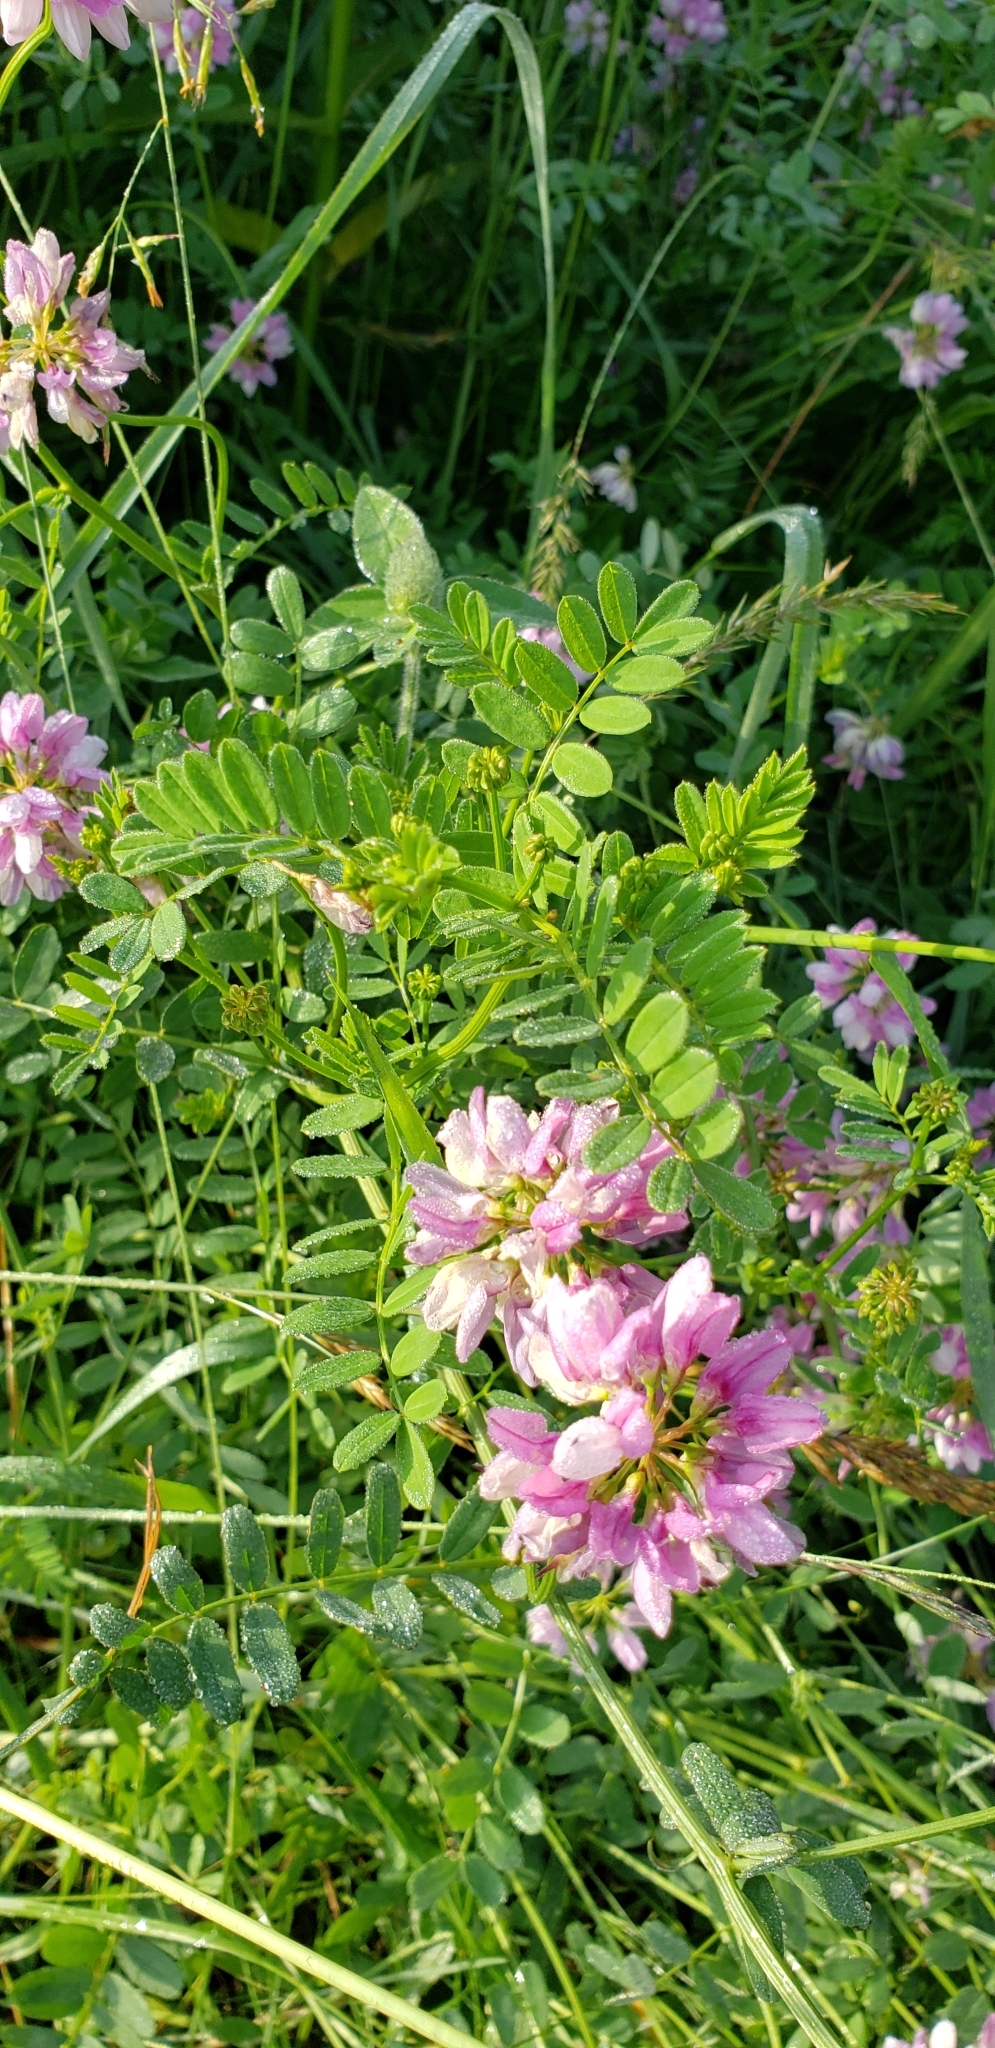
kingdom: Plantae
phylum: Tracheophyta
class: Magnoliopsida
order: Fabales
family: Fabaceae
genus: Coronilla
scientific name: Coronilla varia
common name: Crownvetch
